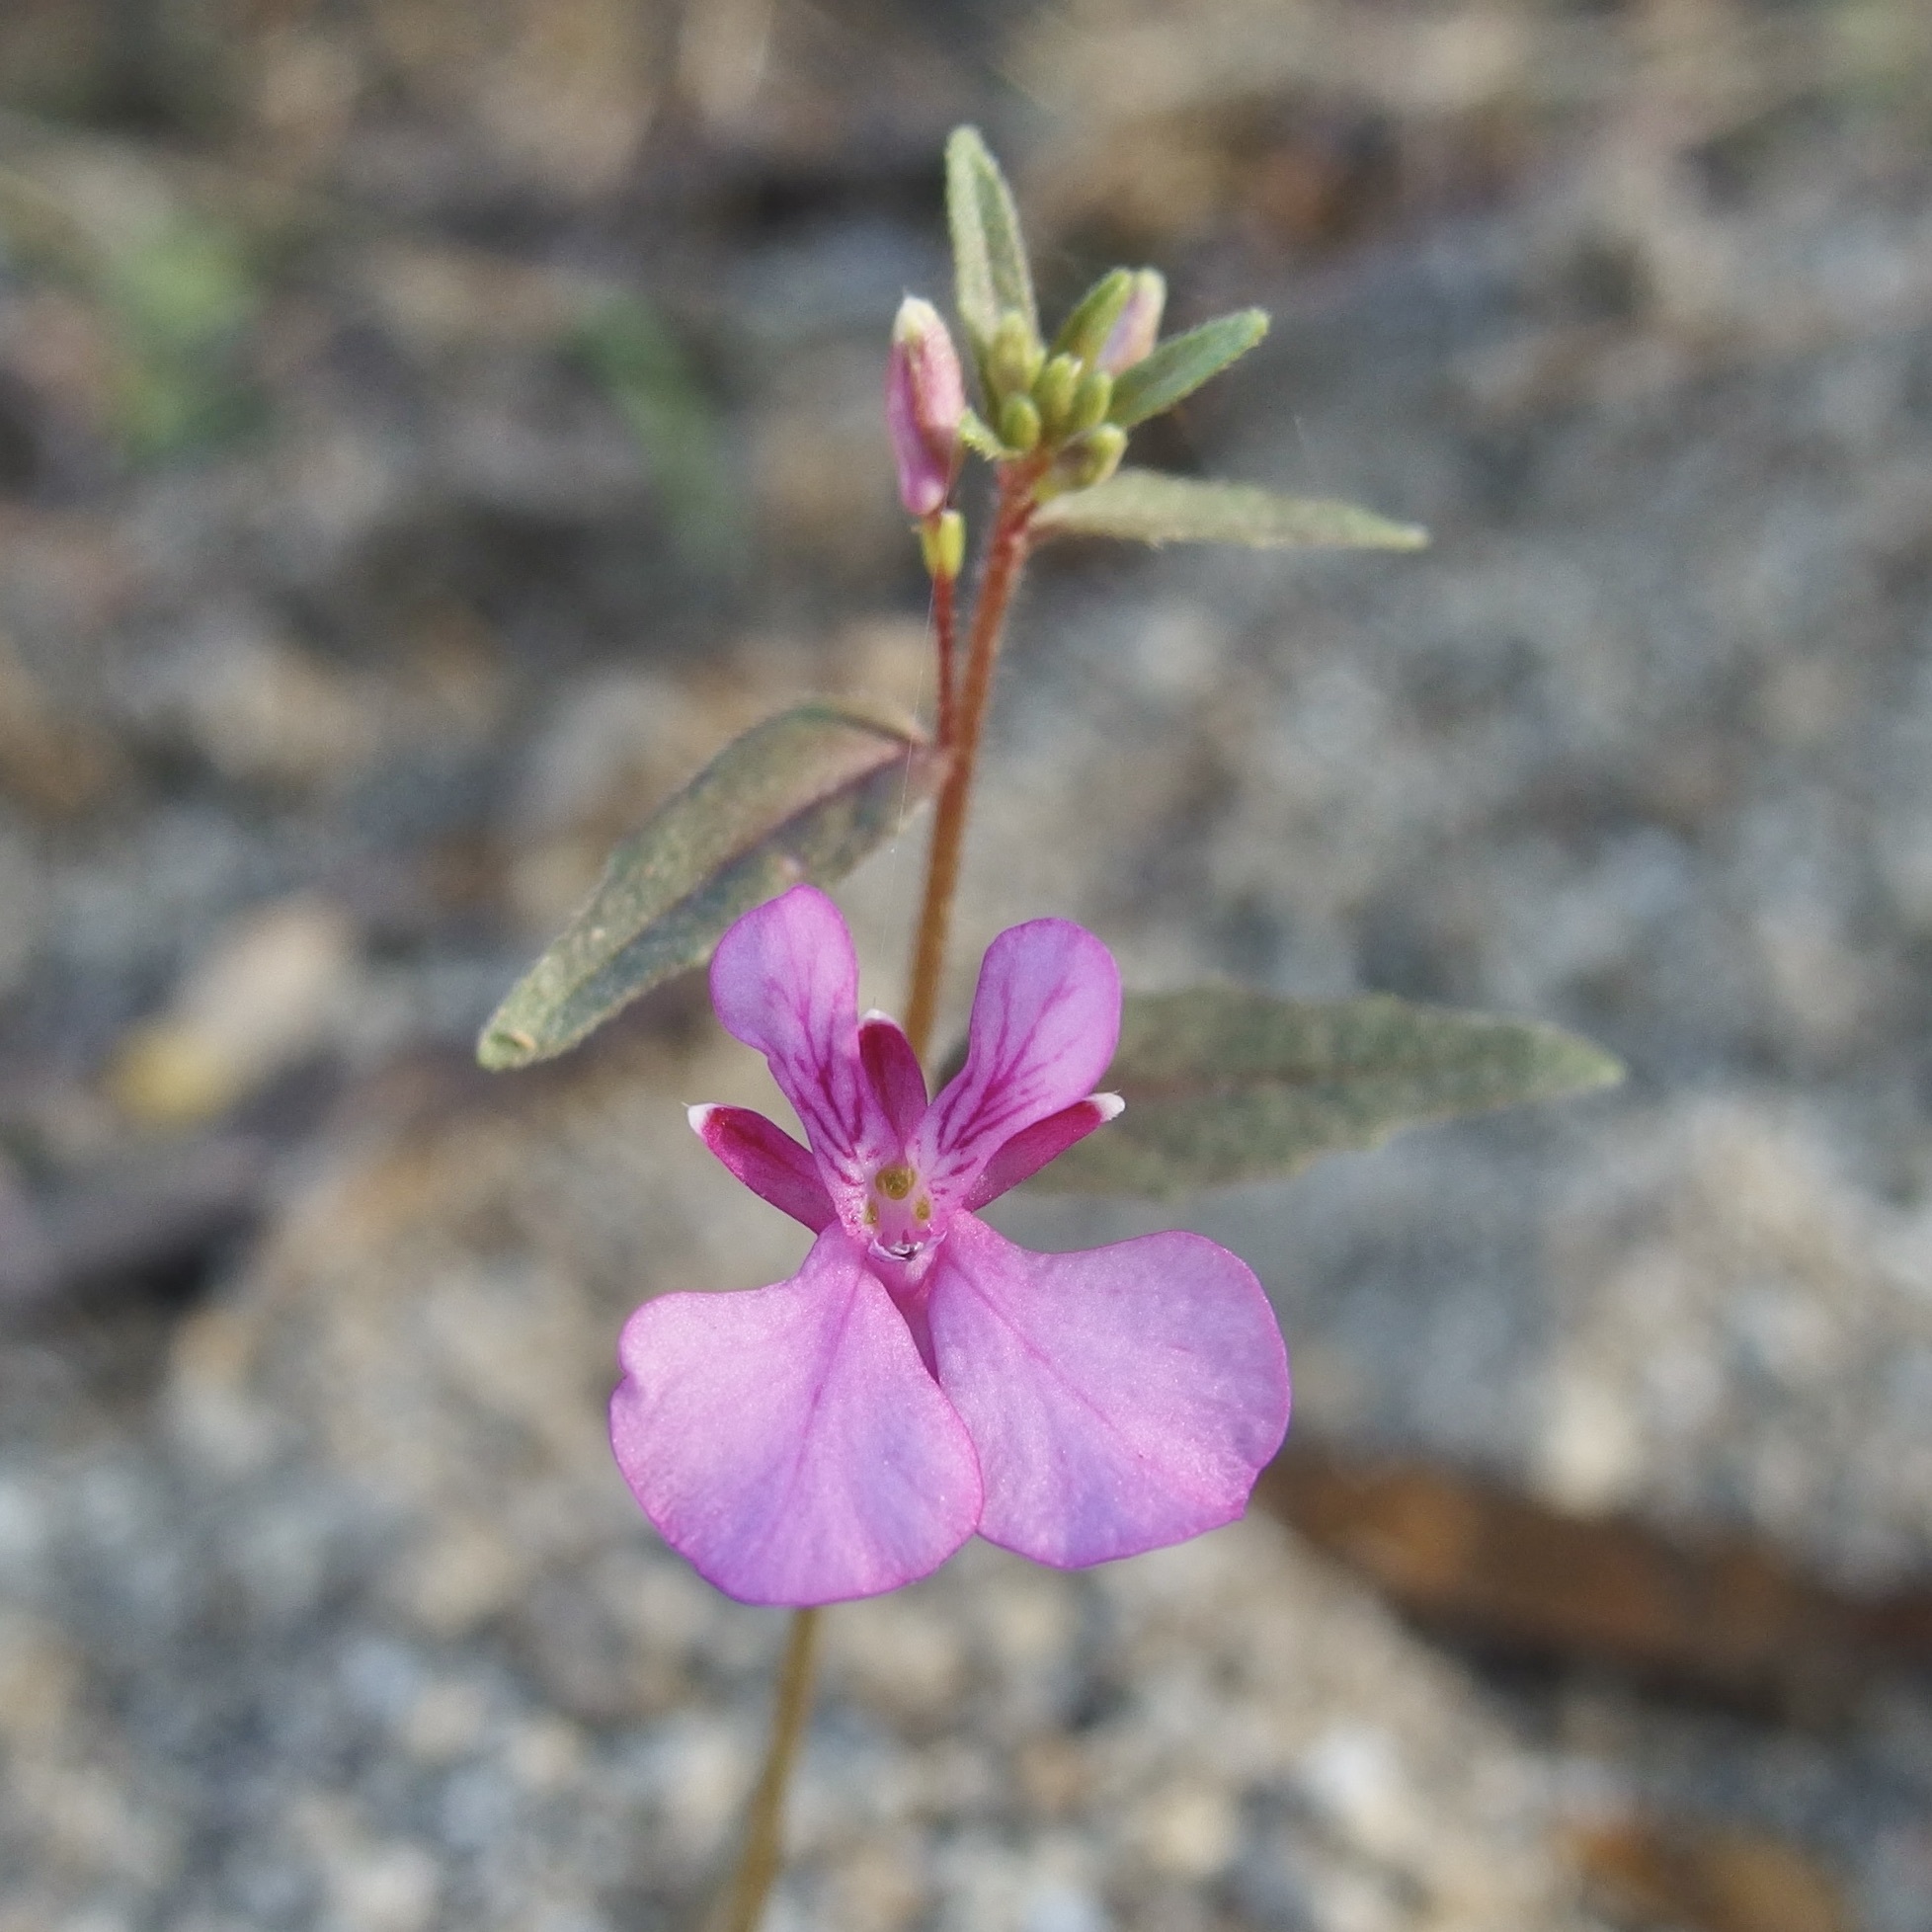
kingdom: Plantae
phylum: Tracheophyta
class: Magnoliopsida
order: Myrtales
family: Onagraceae
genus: Lopezia
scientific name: Lopezia clavata
